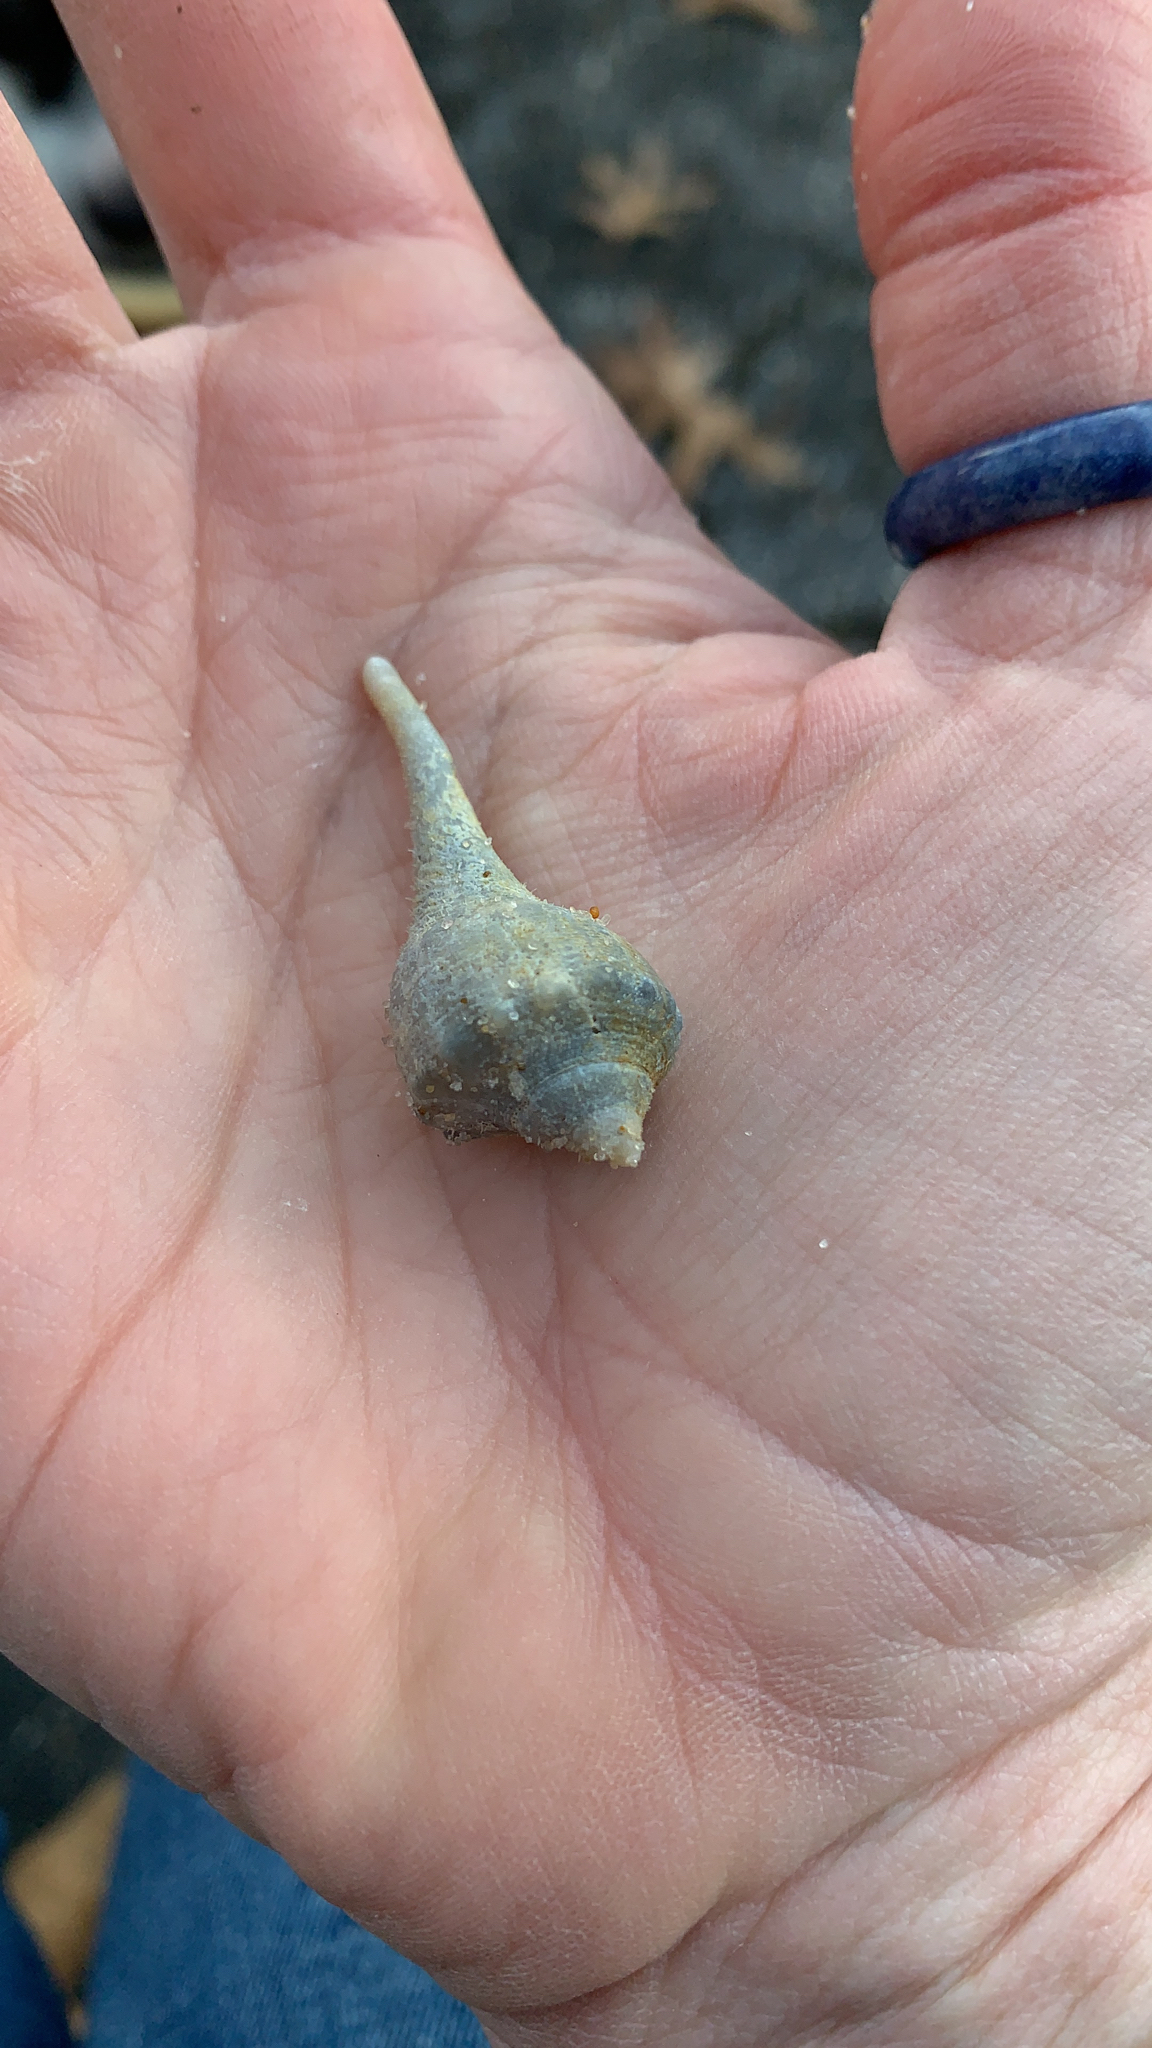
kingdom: Animalia
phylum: Mollusca
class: Gastropoda
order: Neogastropoda
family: Busyconidae
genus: Sinistrofulgur
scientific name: Sinistrofulgur laeostomum
